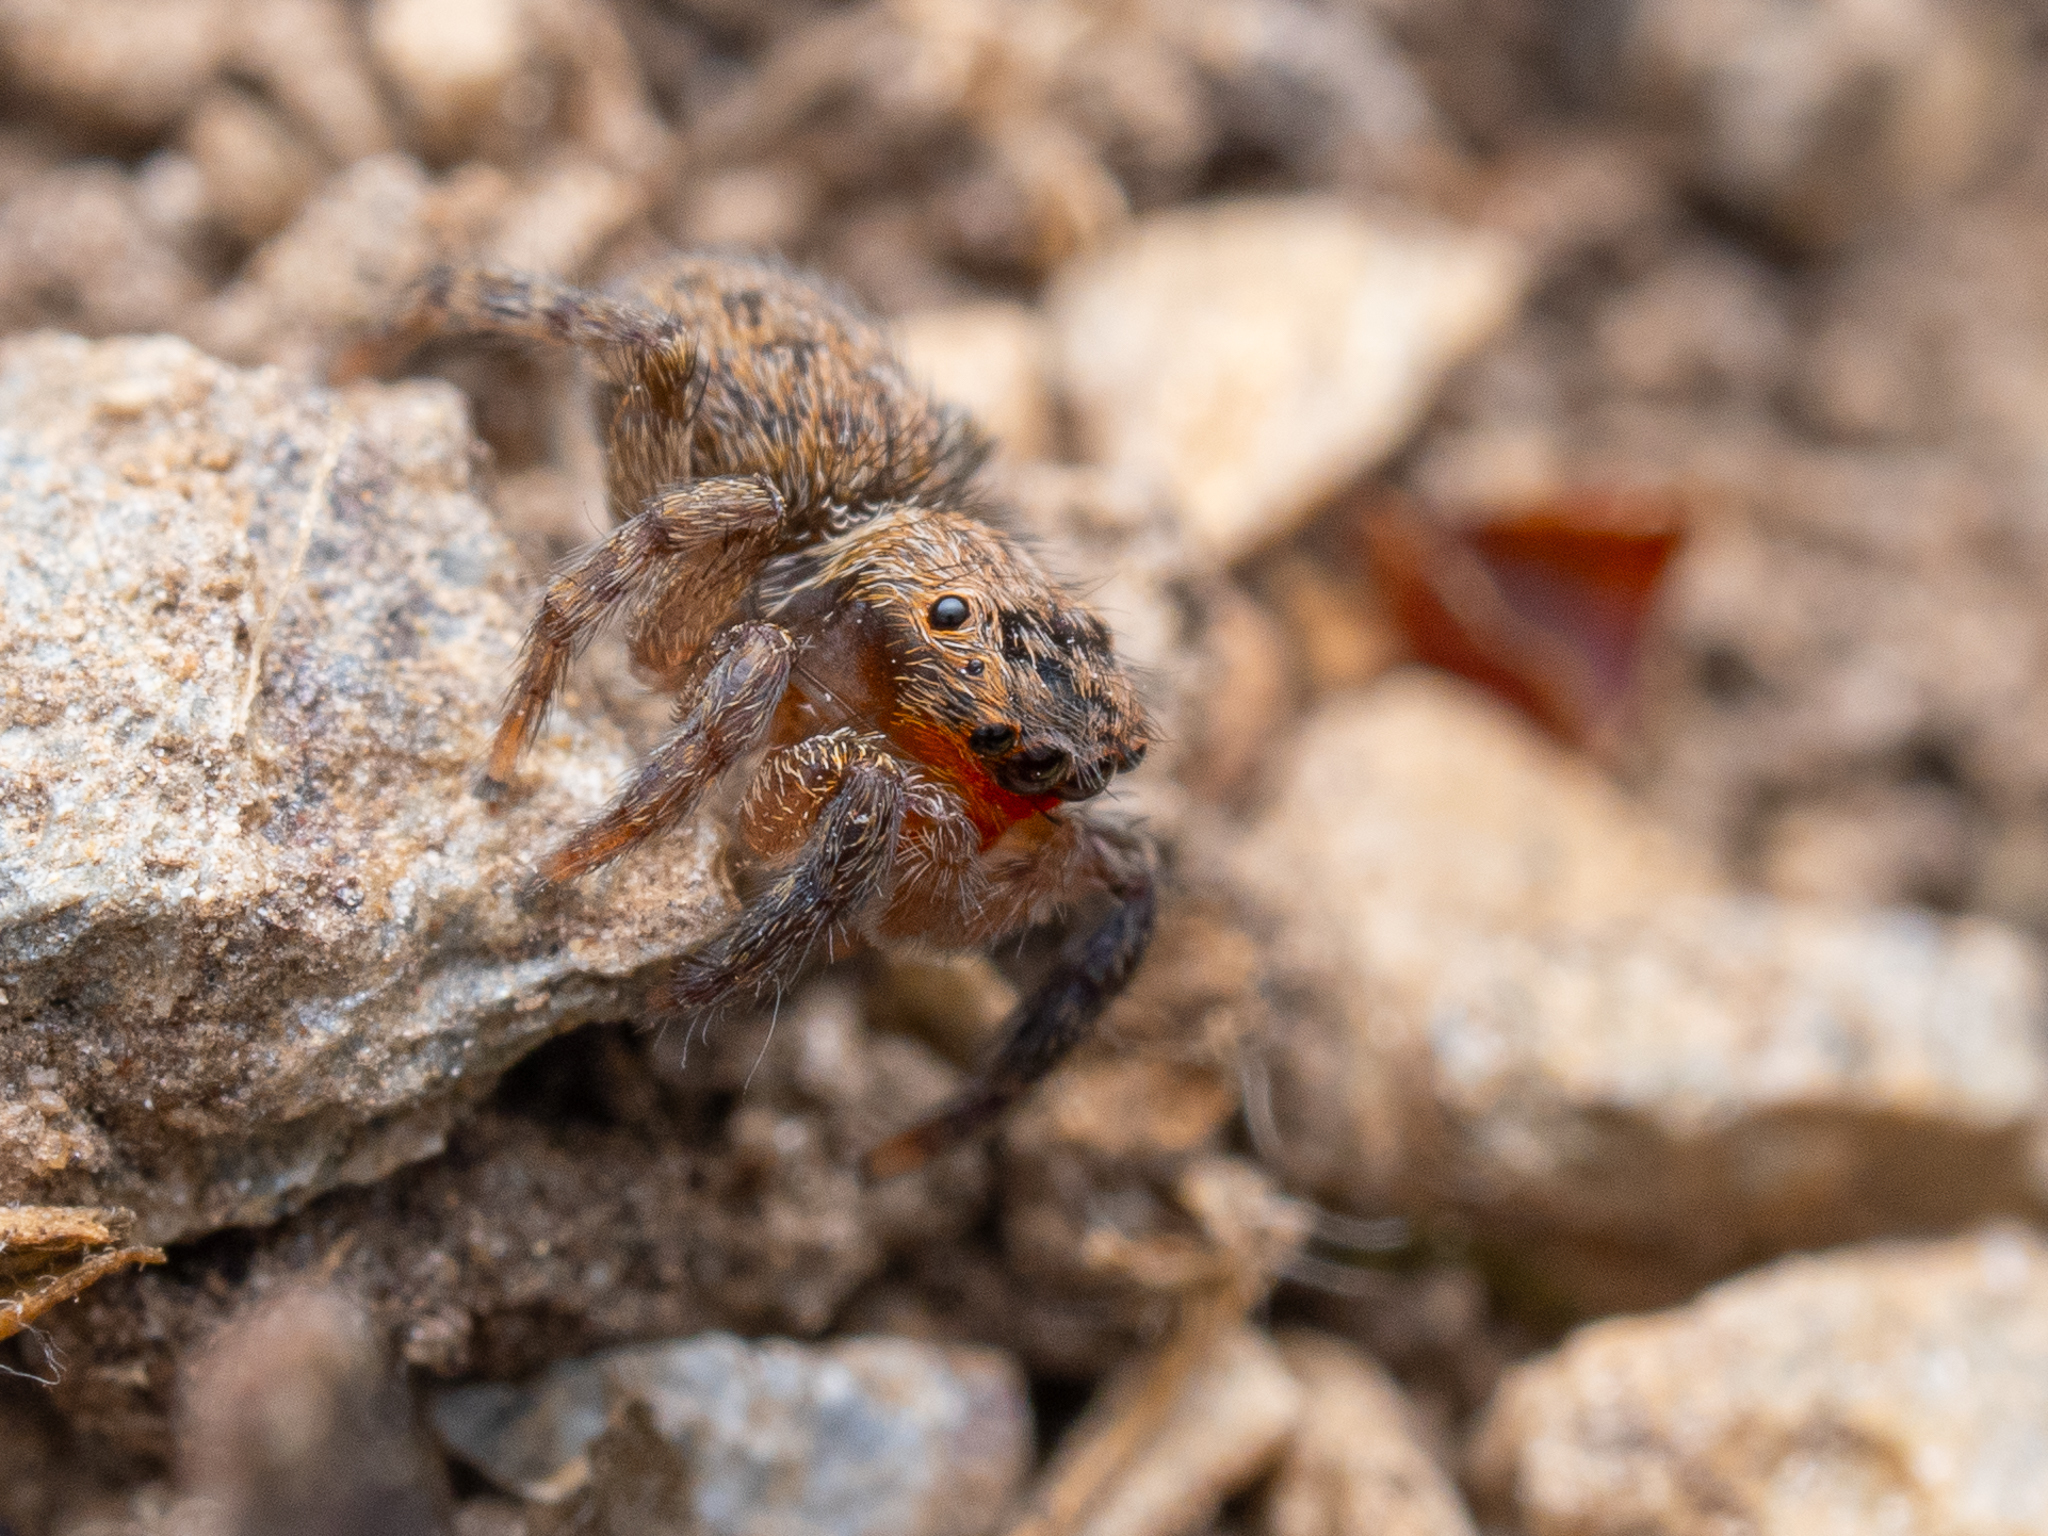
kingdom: Animalia
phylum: Arthropoda
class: Arachnida
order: Araneae
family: Salticidae
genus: Euophrys
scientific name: Euophrys rufibarbis
